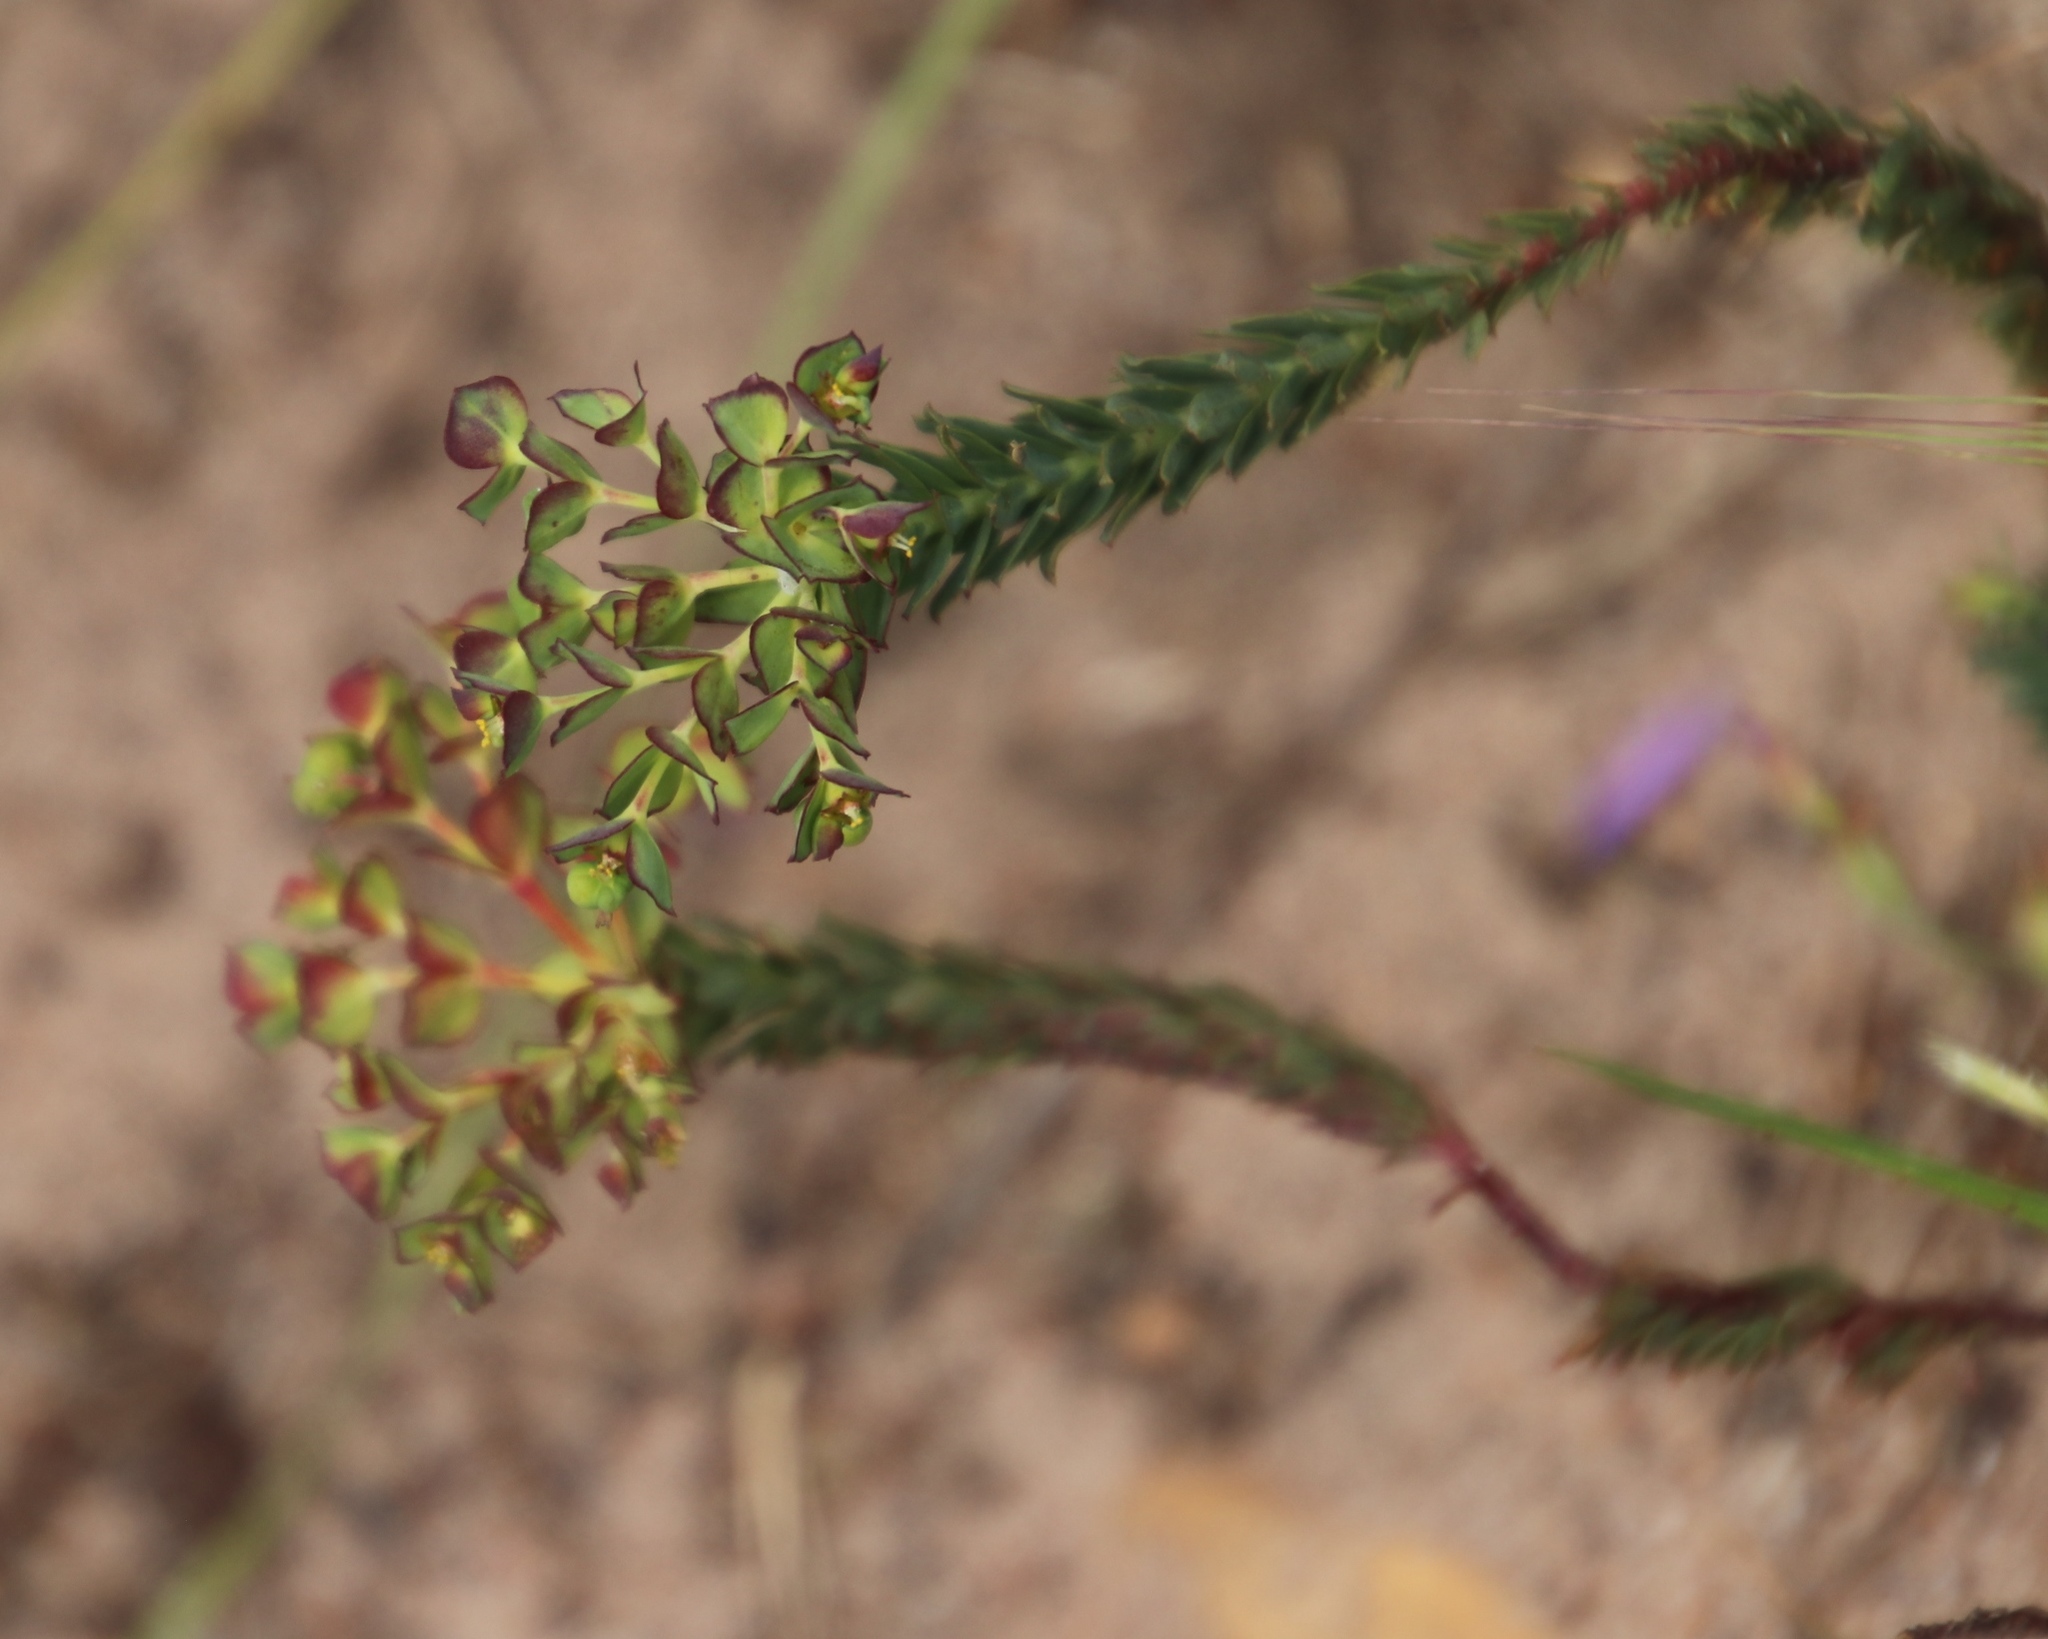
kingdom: Plantae
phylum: Tracheophyta
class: Magnoliopsida
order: Malpighiales
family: Euphorbiaceae
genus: Euphorbia
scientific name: Euphorbia genistoides
